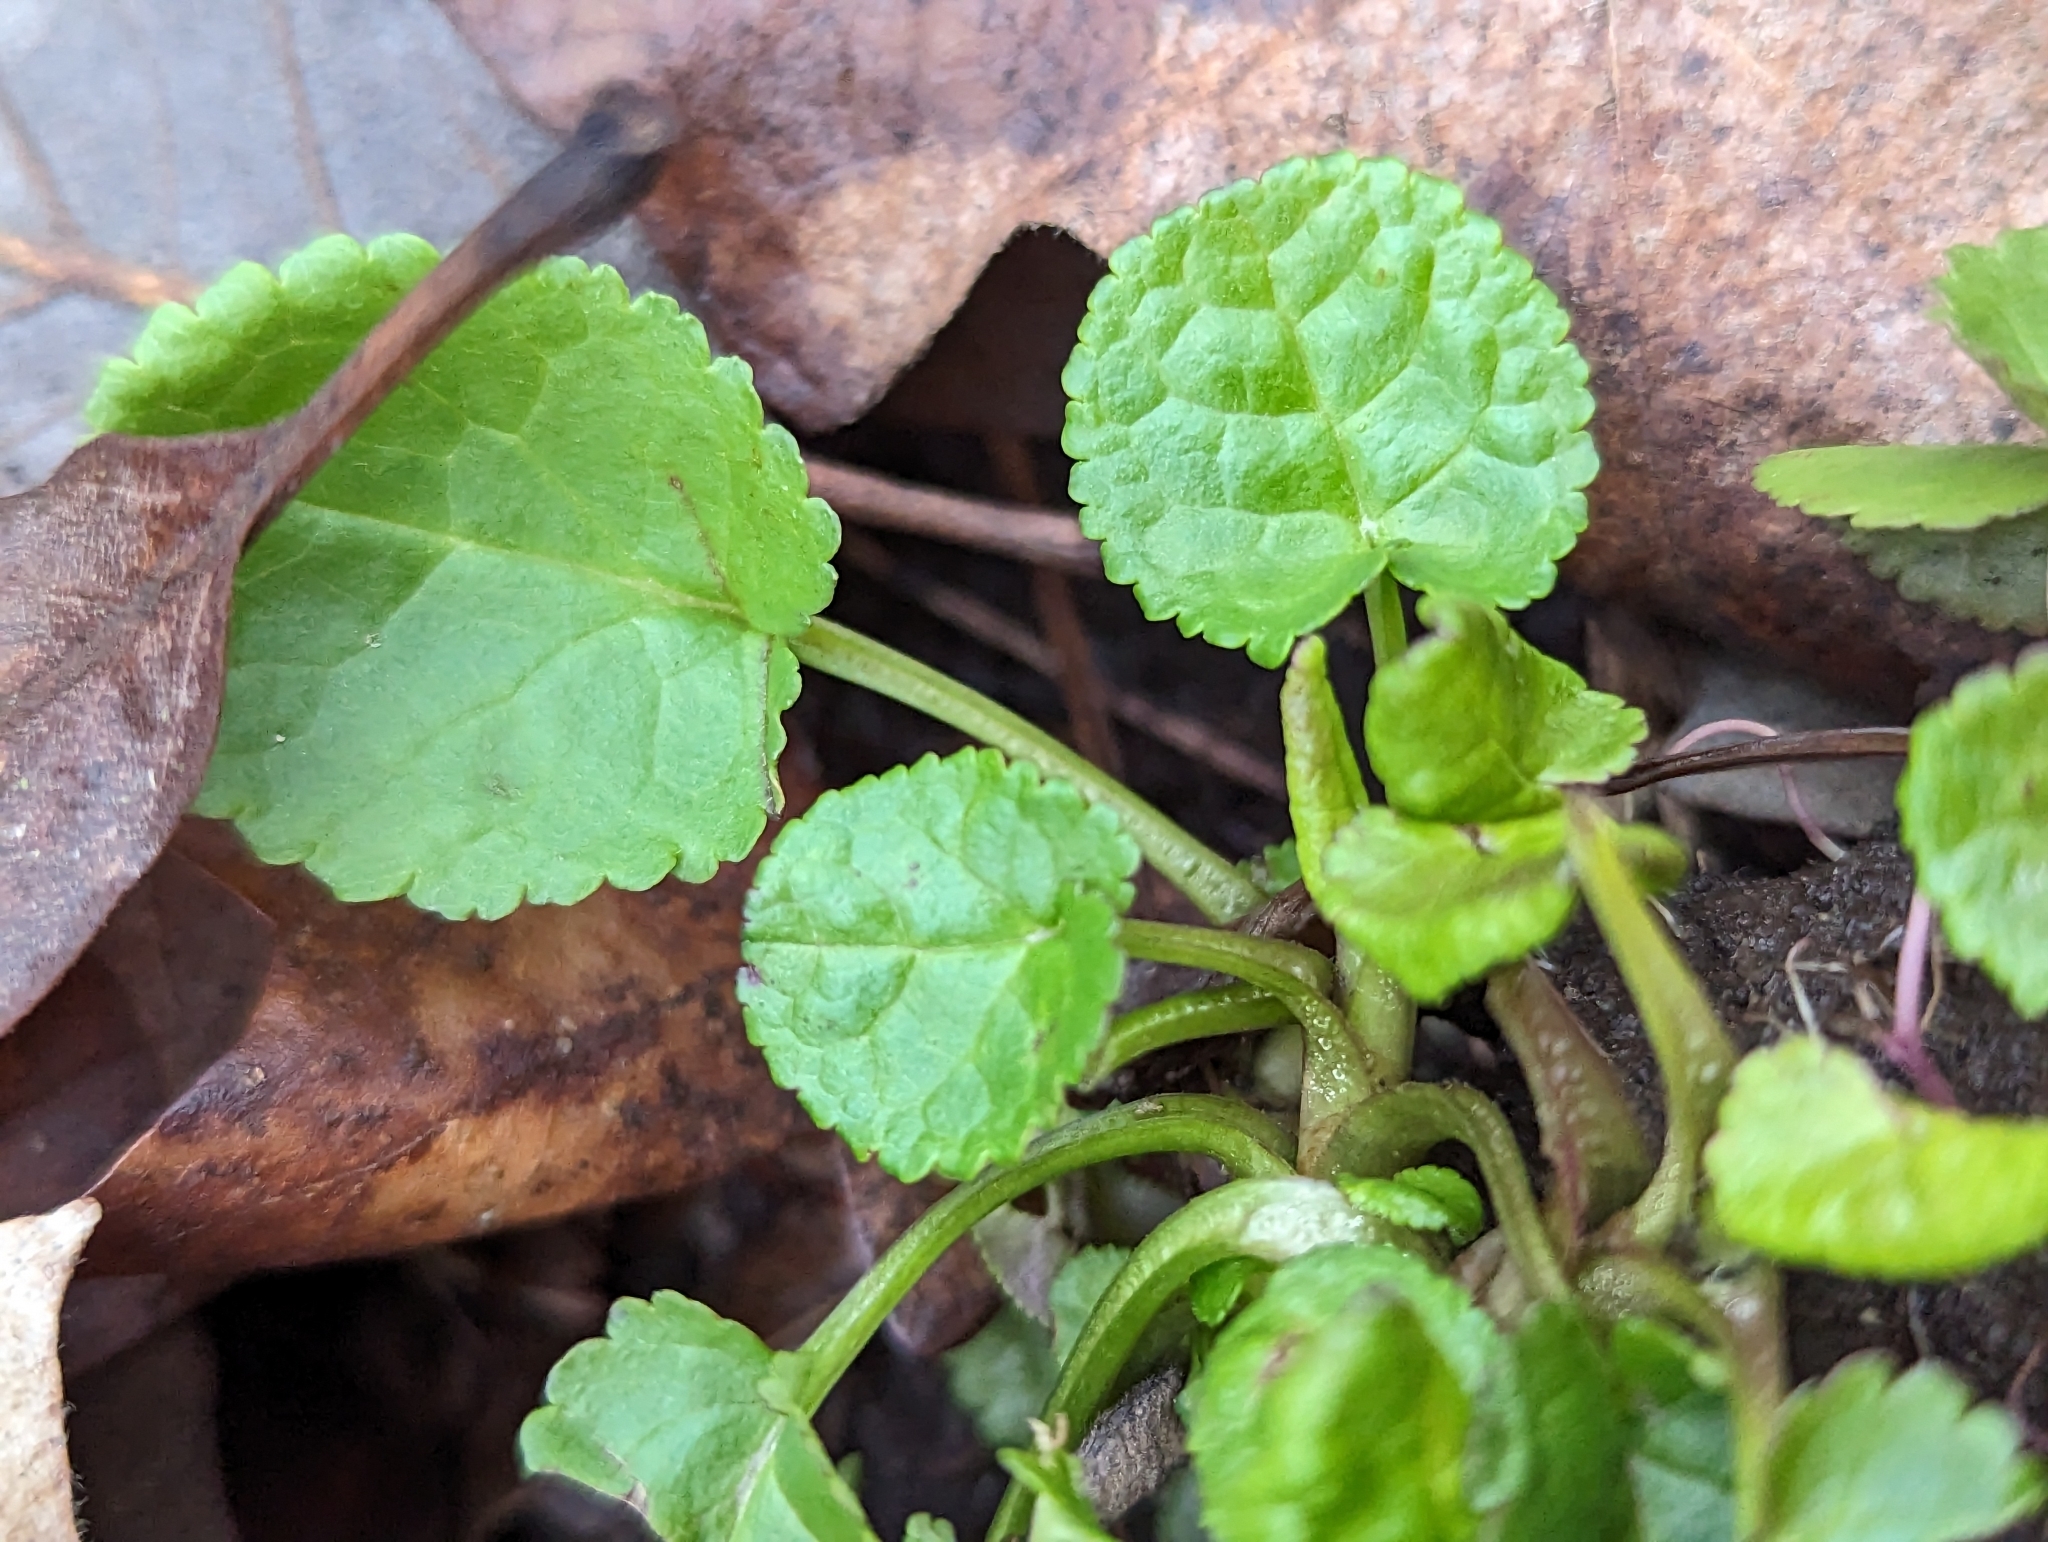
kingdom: Plantae
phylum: Tracheophyta
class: Magnoliopsida
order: Asterales
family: Asteraceae
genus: Packera
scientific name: Packera aurea
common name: Golden groundsel
